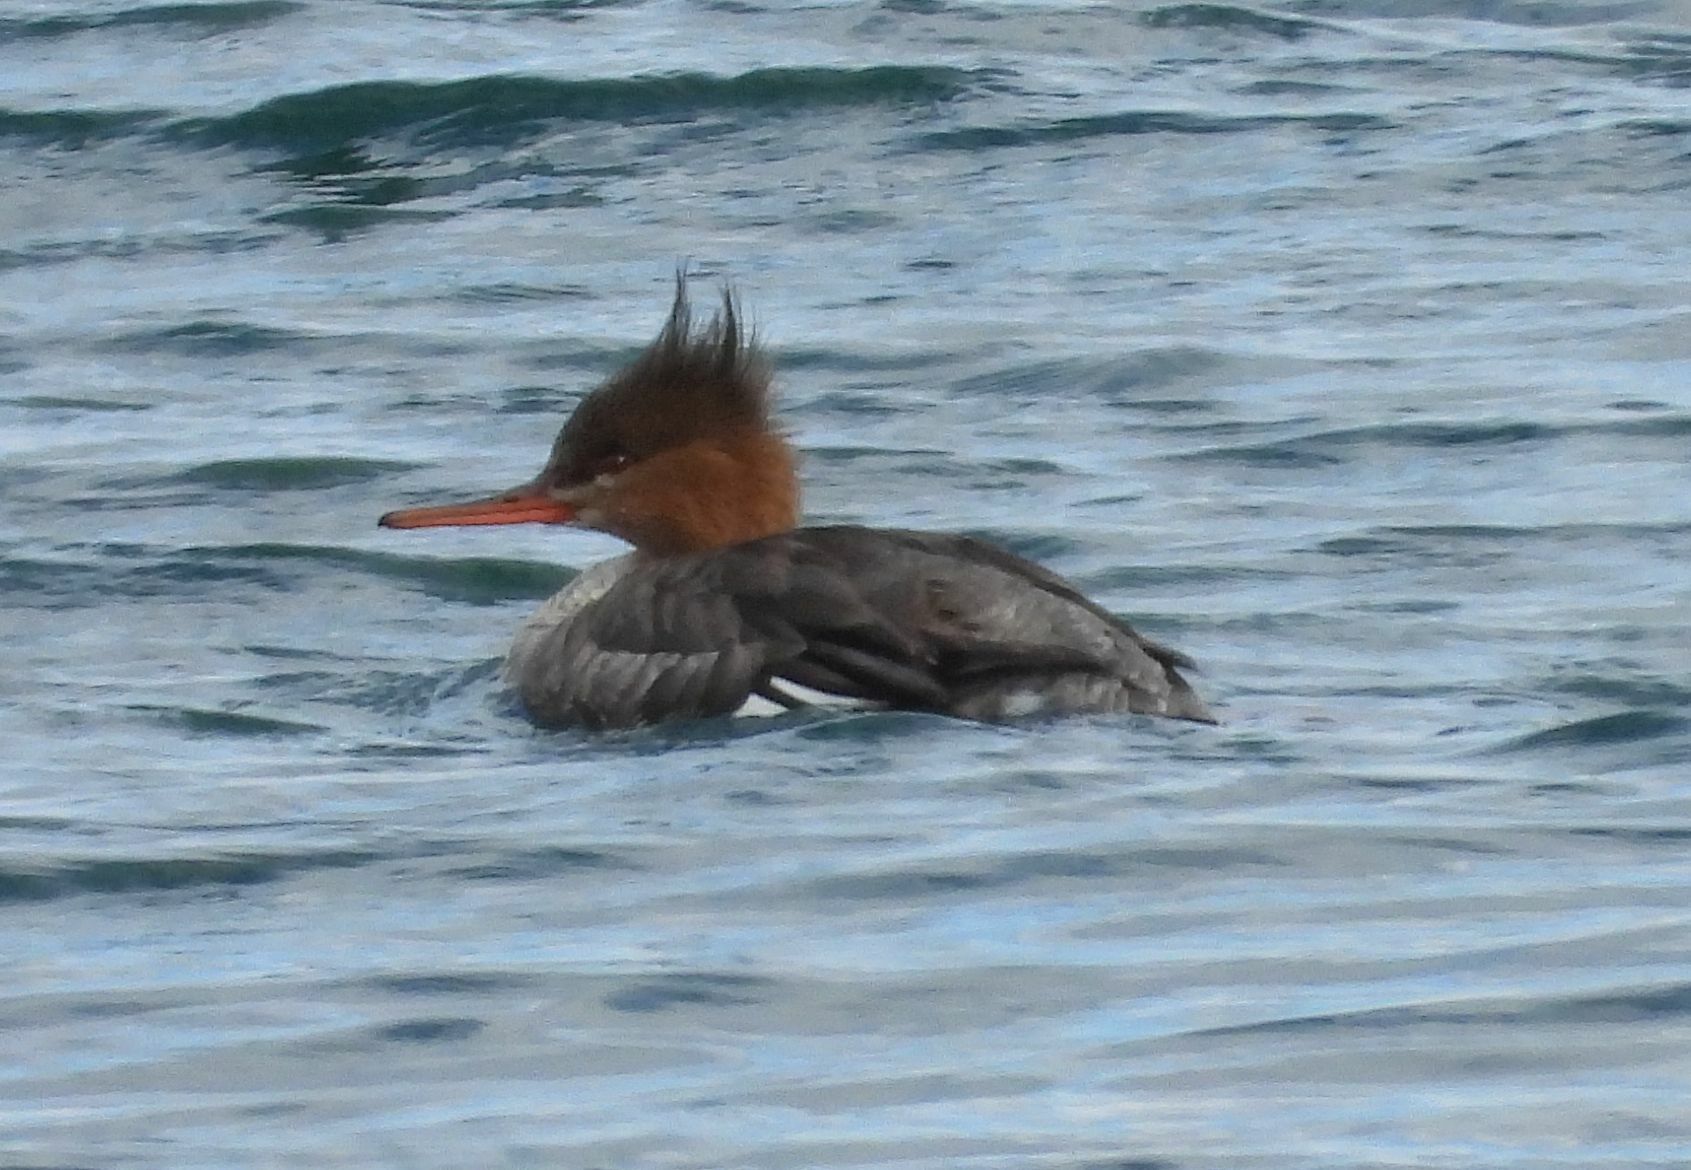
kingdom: Animalia
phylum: Chordata
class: Aves
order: Anseriformes
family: Anatidae
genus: Mergus
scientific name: Mergus serrator
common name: Red-breasted merganser
